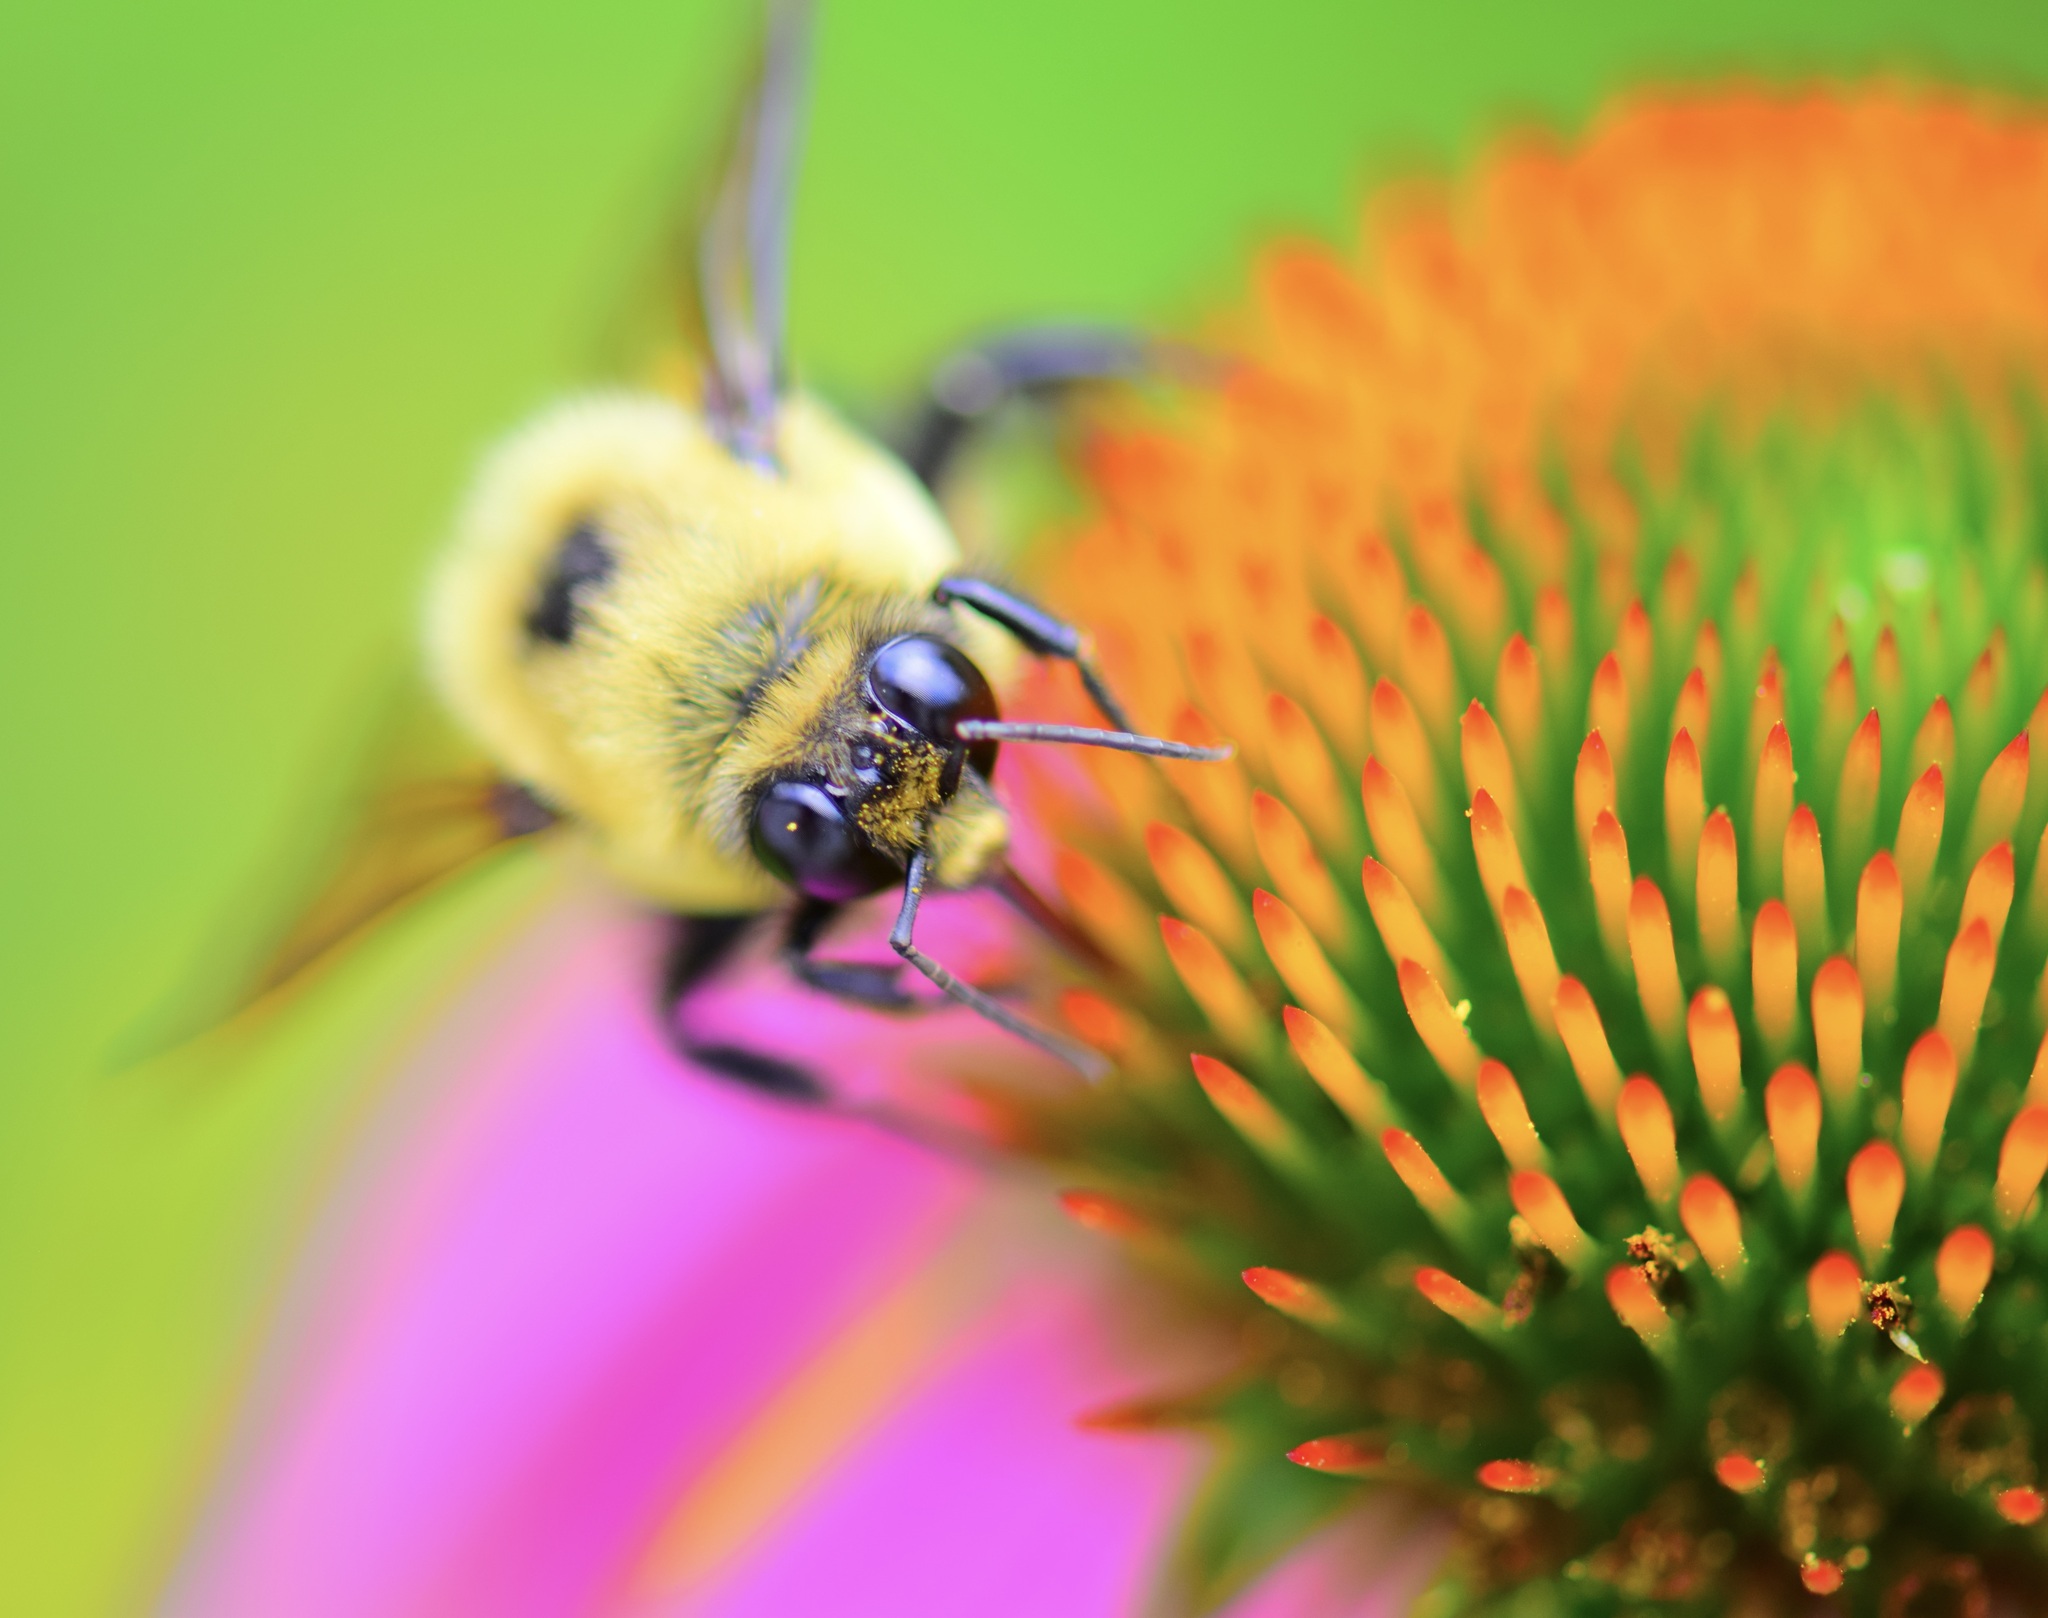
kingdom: Animalia
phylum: Arthropoda
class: Insecta
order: Hymenoptera
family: Apidae
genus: Bombus
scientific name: Bombus griseocollis
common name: Brown-belted bumble bee
